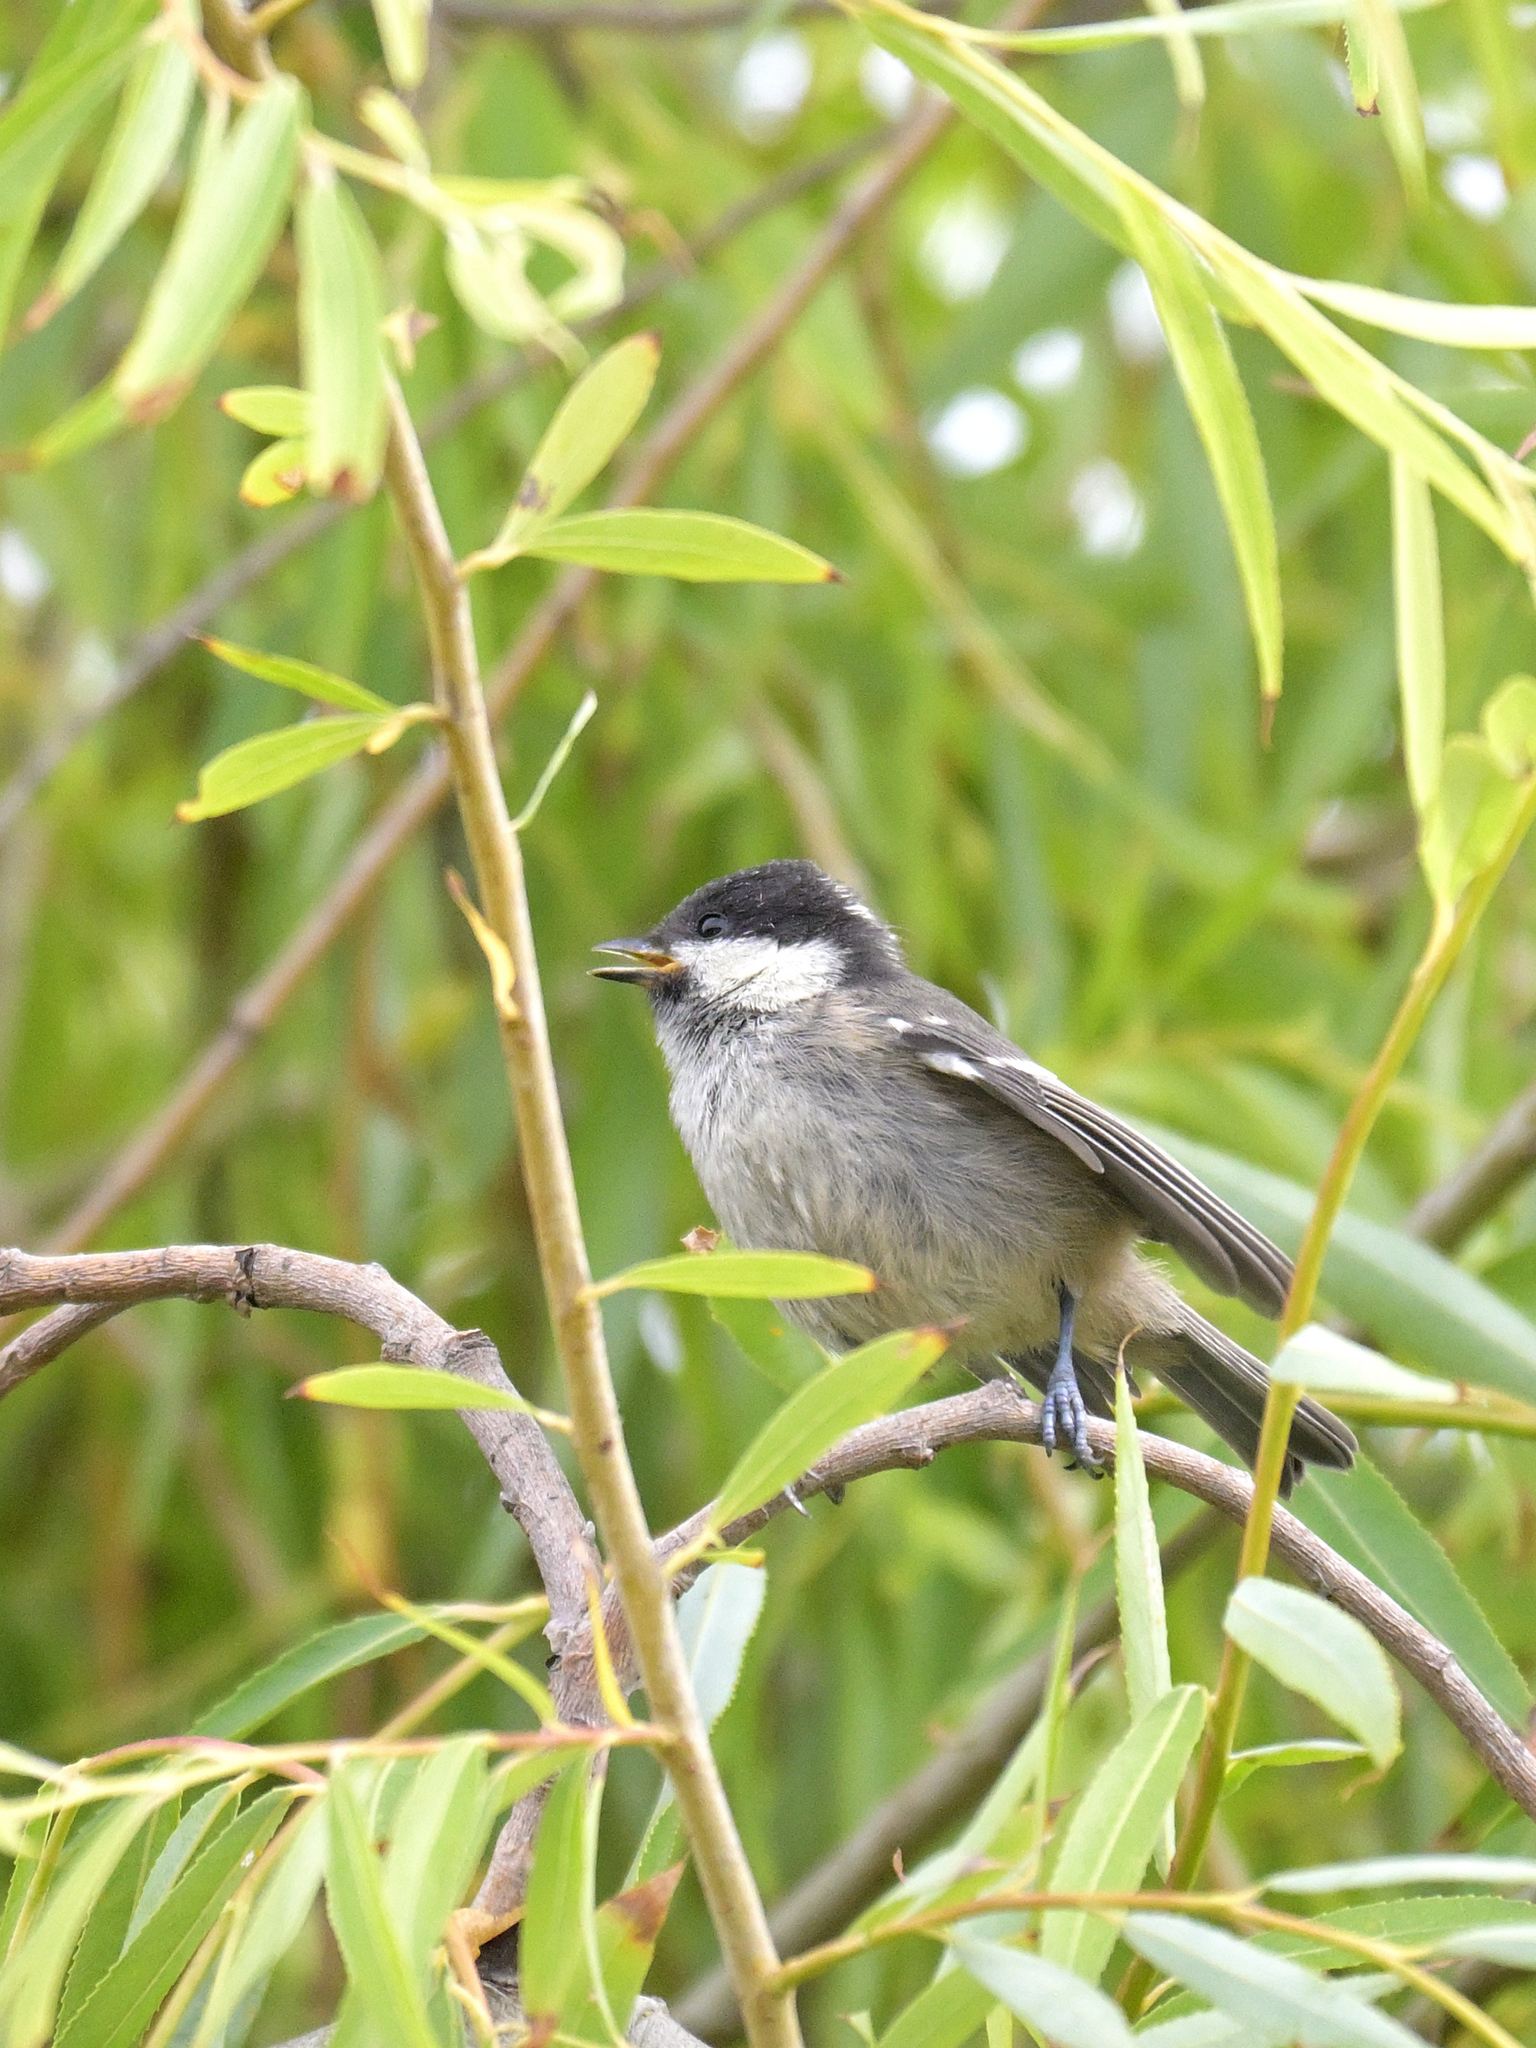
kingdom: Animalia
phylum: Chordata
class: Aves
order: Passeriformes
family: Paridae
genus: Periparus
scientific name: Periparus ater
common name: Coal tit
